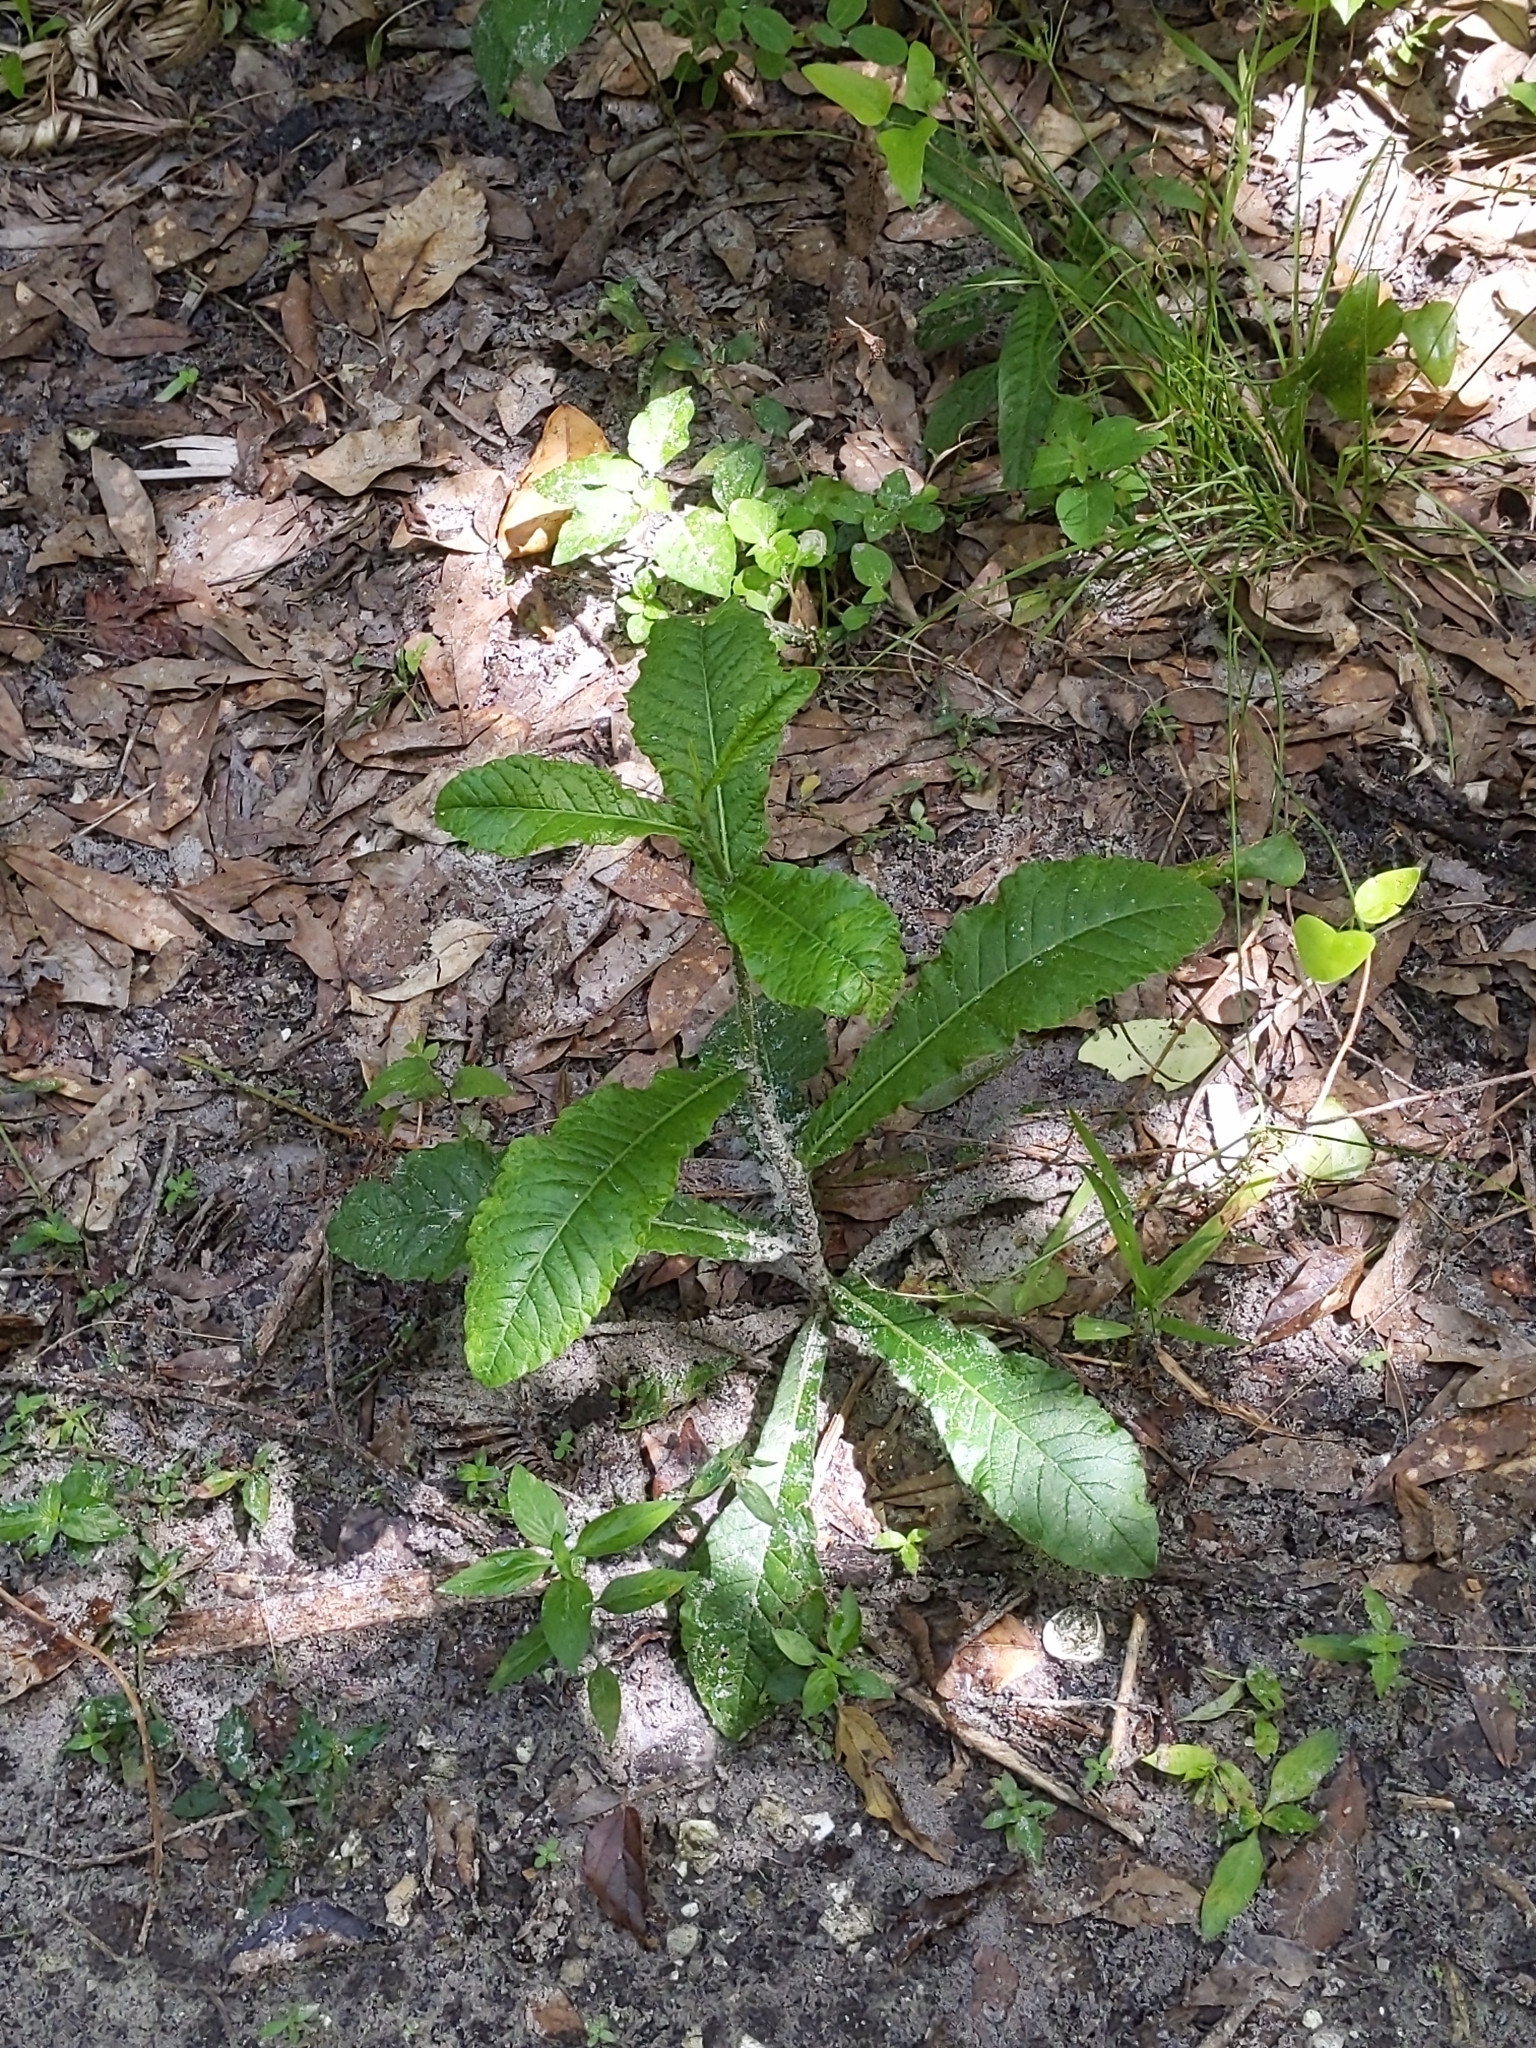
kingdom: Plantae
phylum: Tracheophyta
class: Magnoliopsida
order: Asterales
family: Asteraceae
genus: Elephantopus
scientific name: Elephantopus carolinianus
